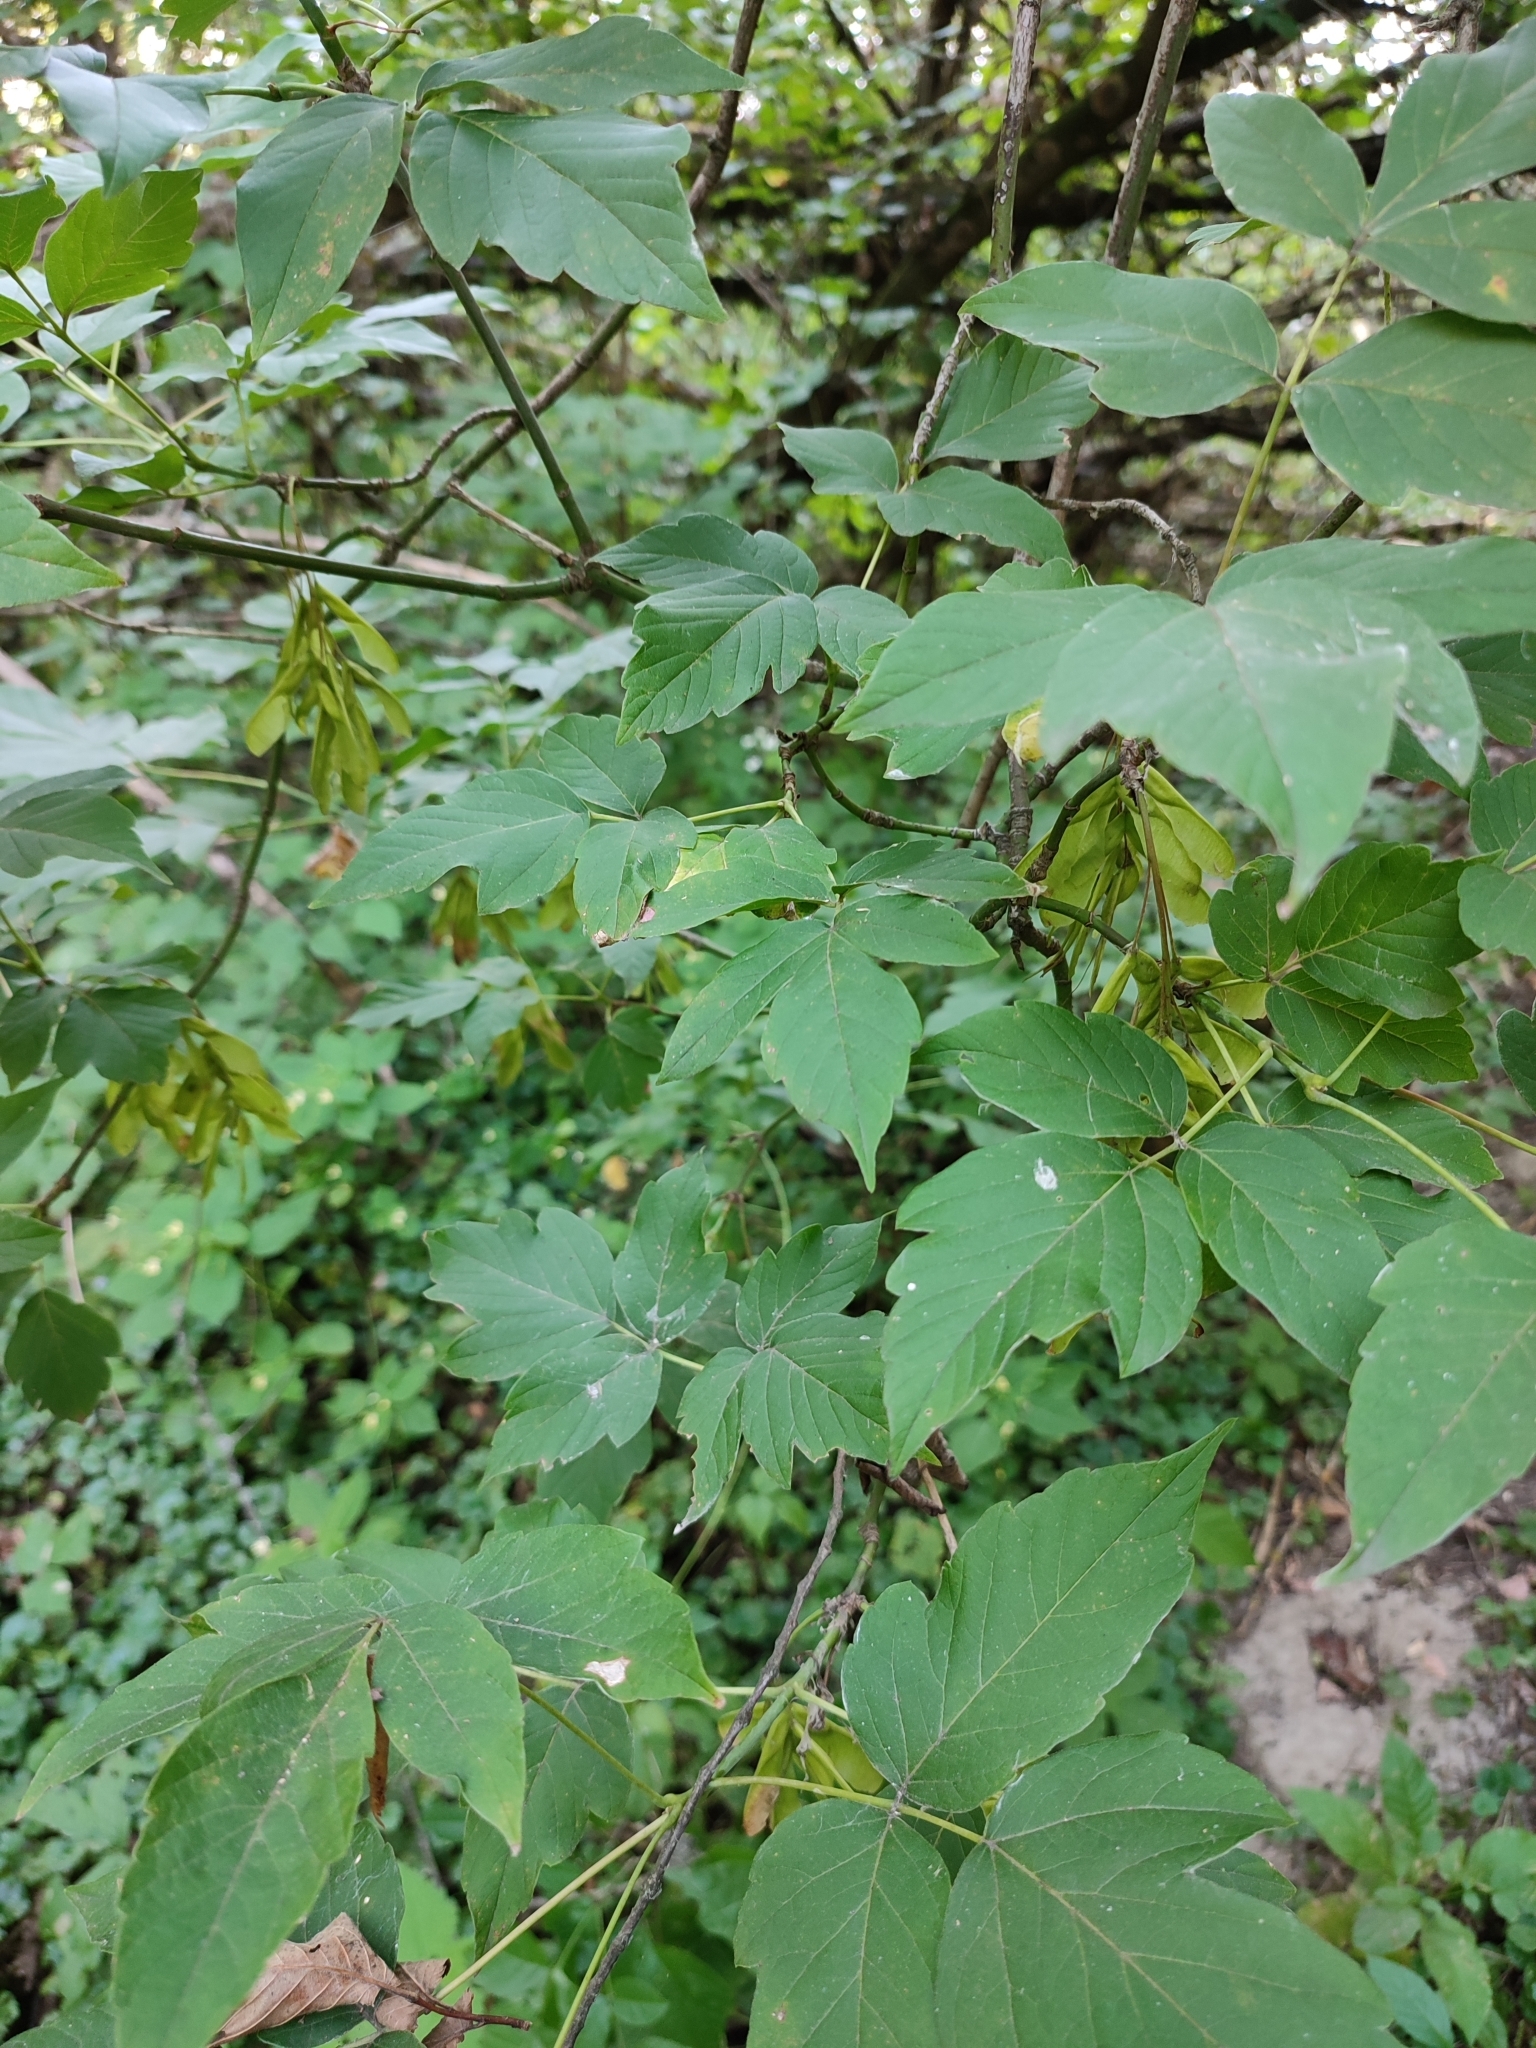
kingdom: Plantae
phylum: Tracheophyta
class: Magnoliopsida
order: Sapindales
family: Sapindaceae
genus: Acer
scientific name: Acer negundo
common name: Ashleaf maple
